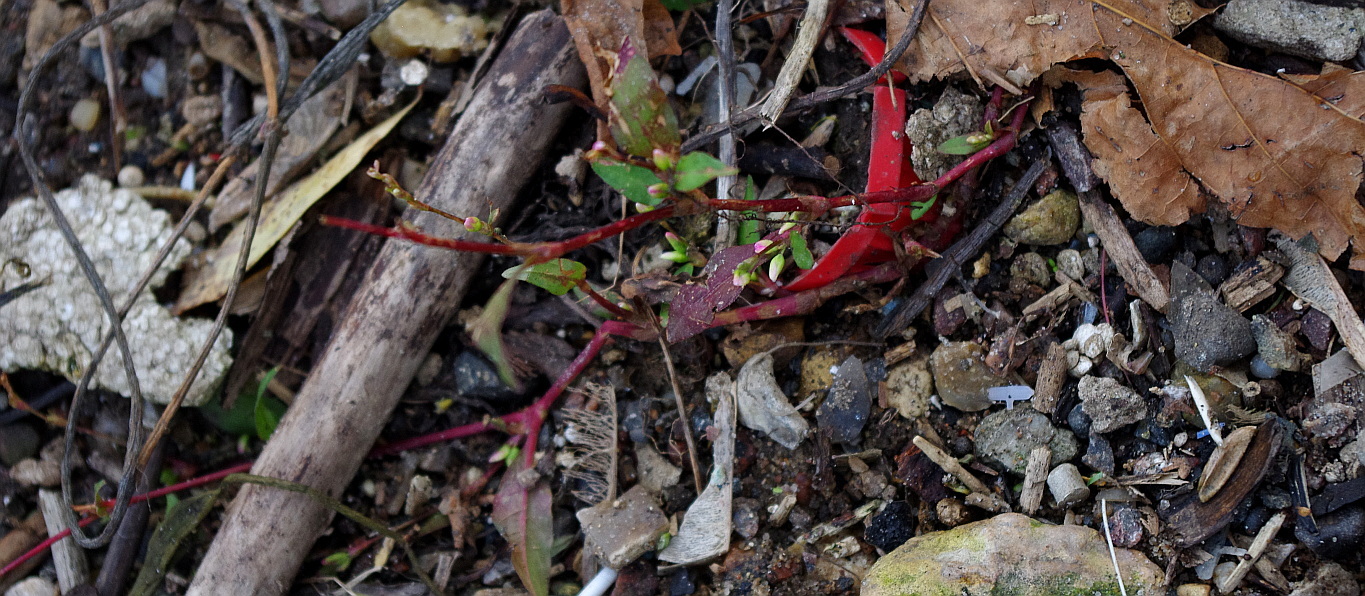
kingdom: Plantae
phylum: Tracheophyta
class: Magnoliopsida
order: Caryophyllales
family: Polygonaceae
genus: Persicaria
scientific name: Persicaria hydropiper
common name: Water-pepper
